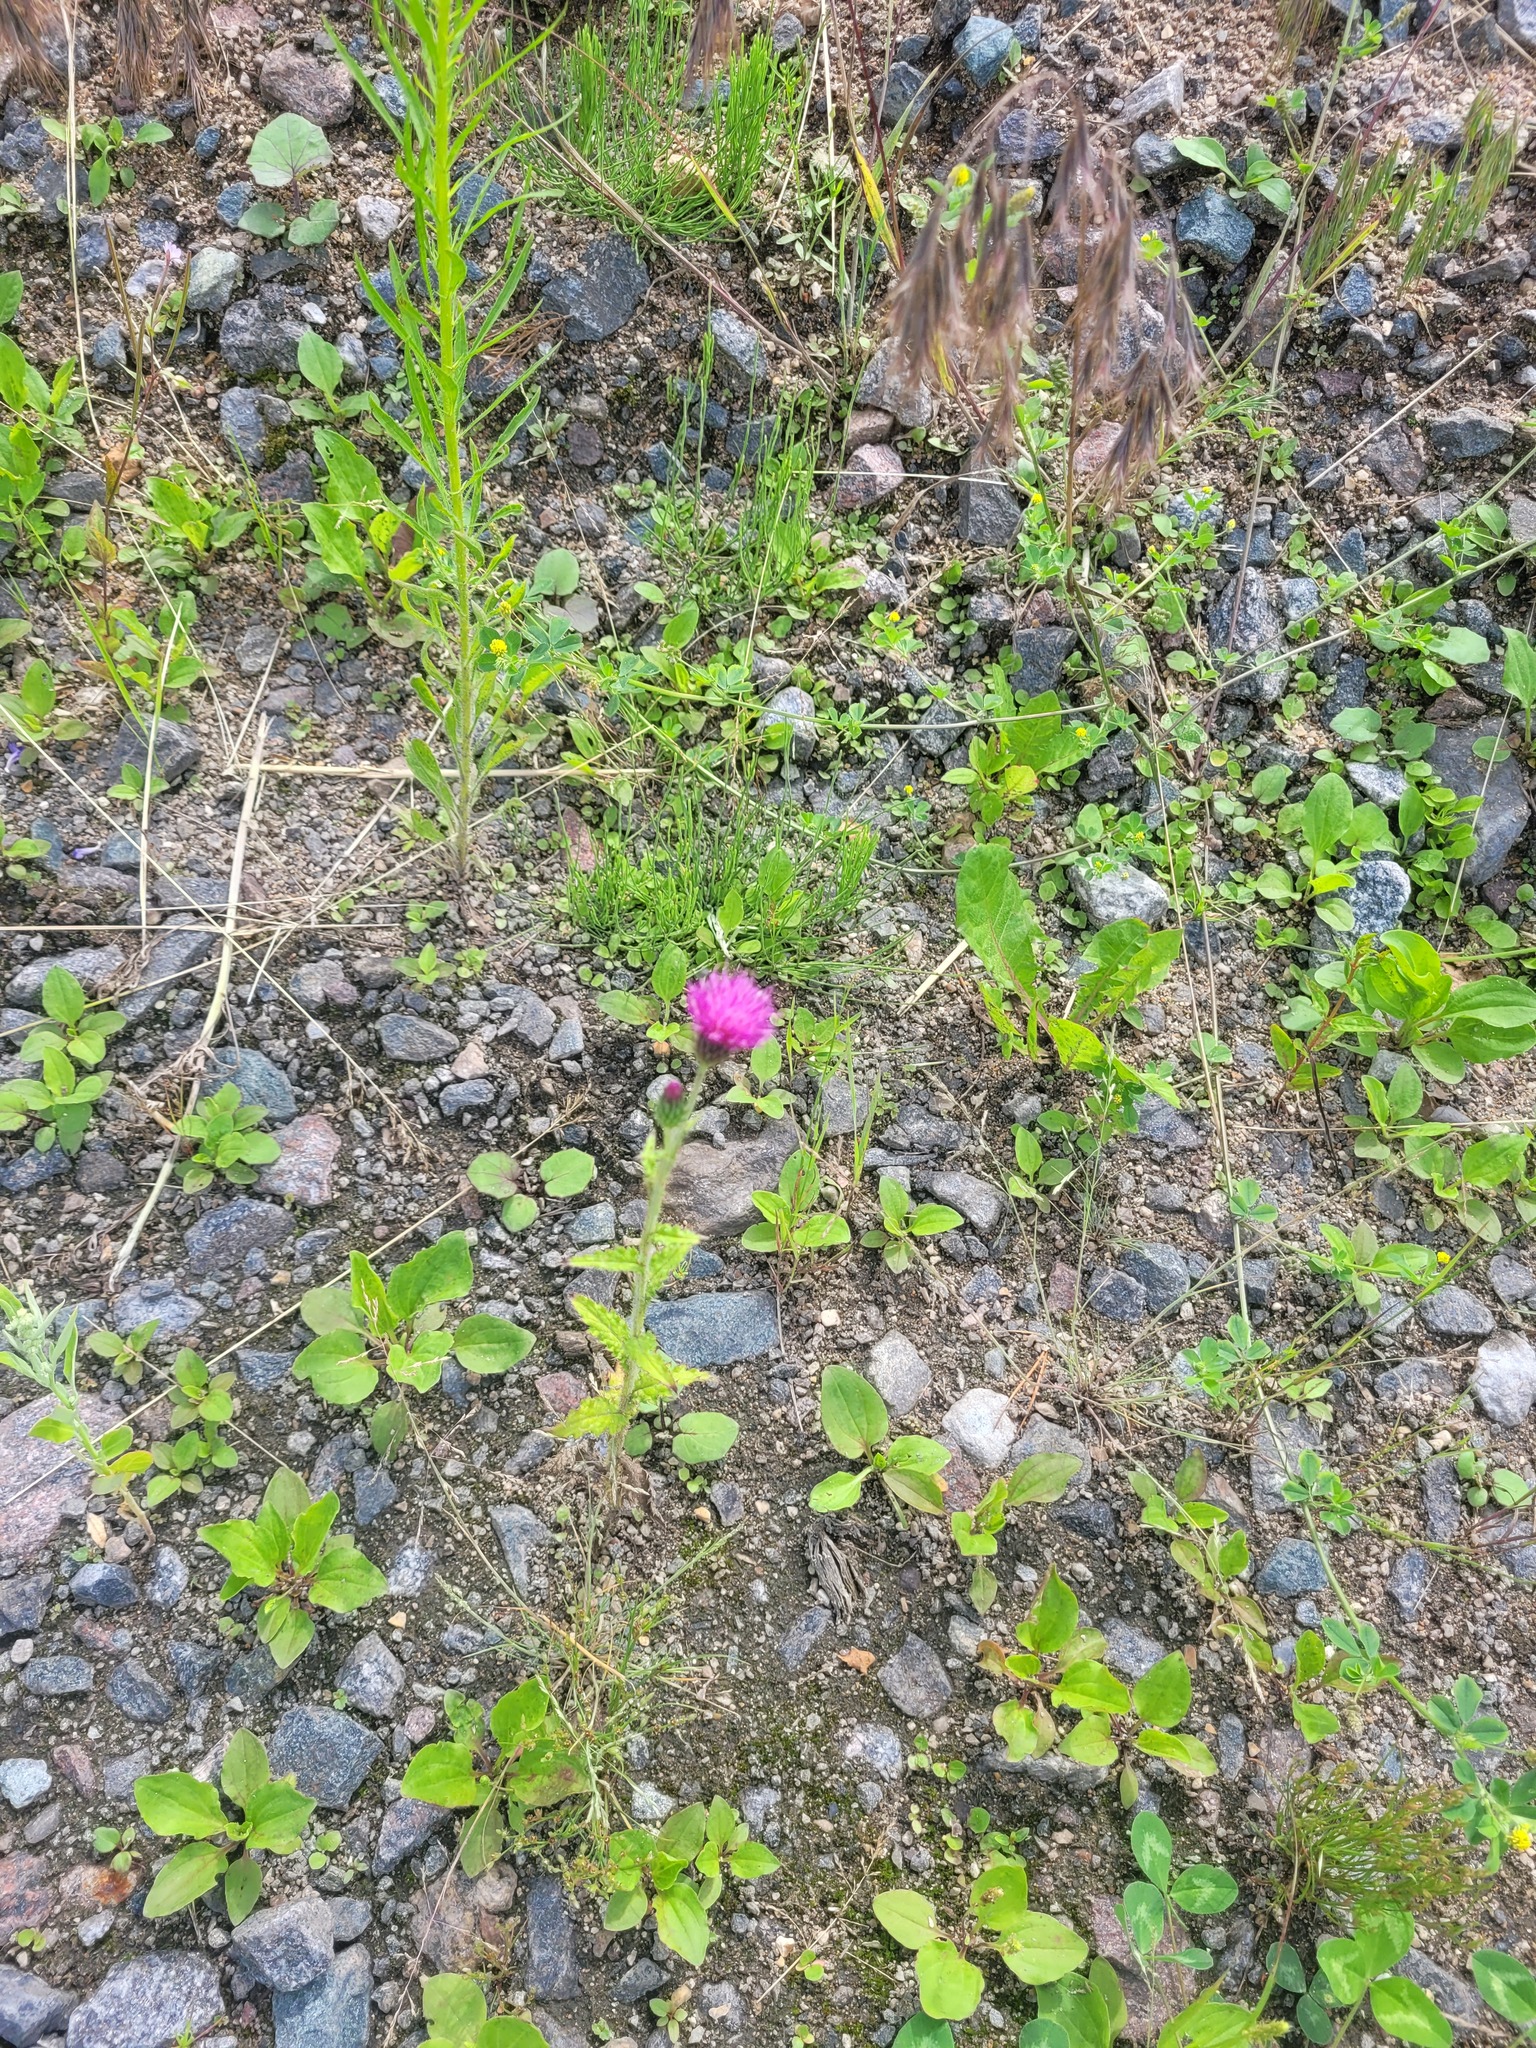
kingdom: Plantae
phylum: Tracheophyta
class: Magnoliopsida
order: Asterales
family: Asteraceae
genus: Carduus
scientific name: Carduus crispus
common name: Welted thistle
